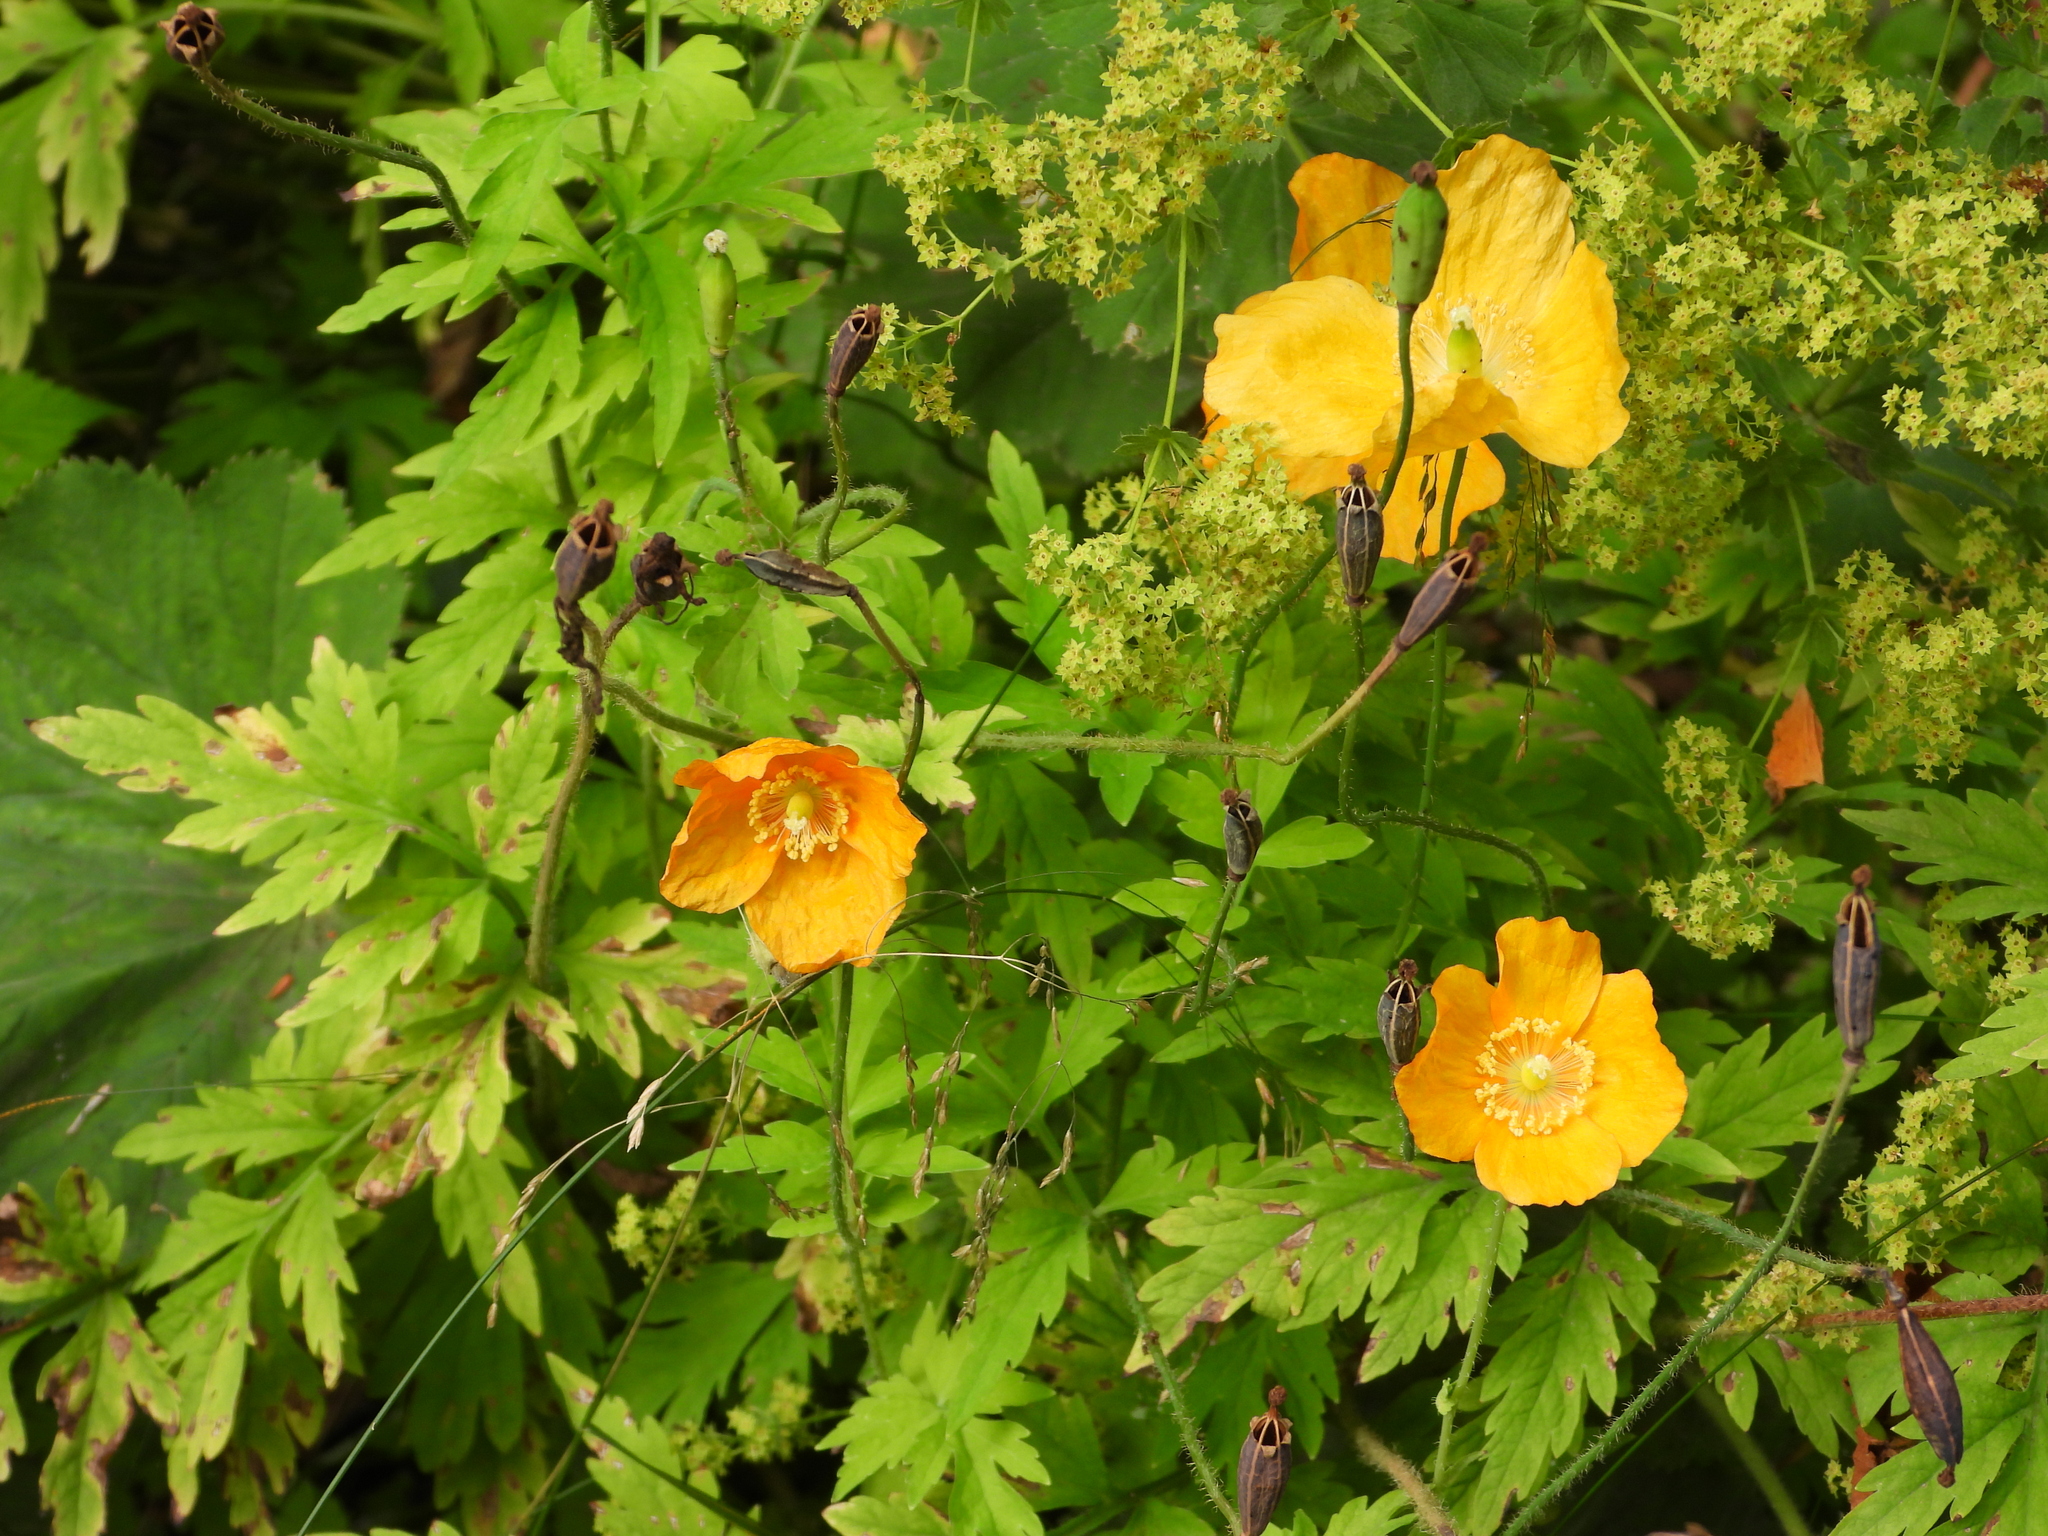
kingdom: Plantae
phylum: Tracheophyta
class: Magnoliopsida
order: Ranunculales
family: Papaveraceae
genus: Papaver
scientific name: Papaver cambricum
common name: Poppy
